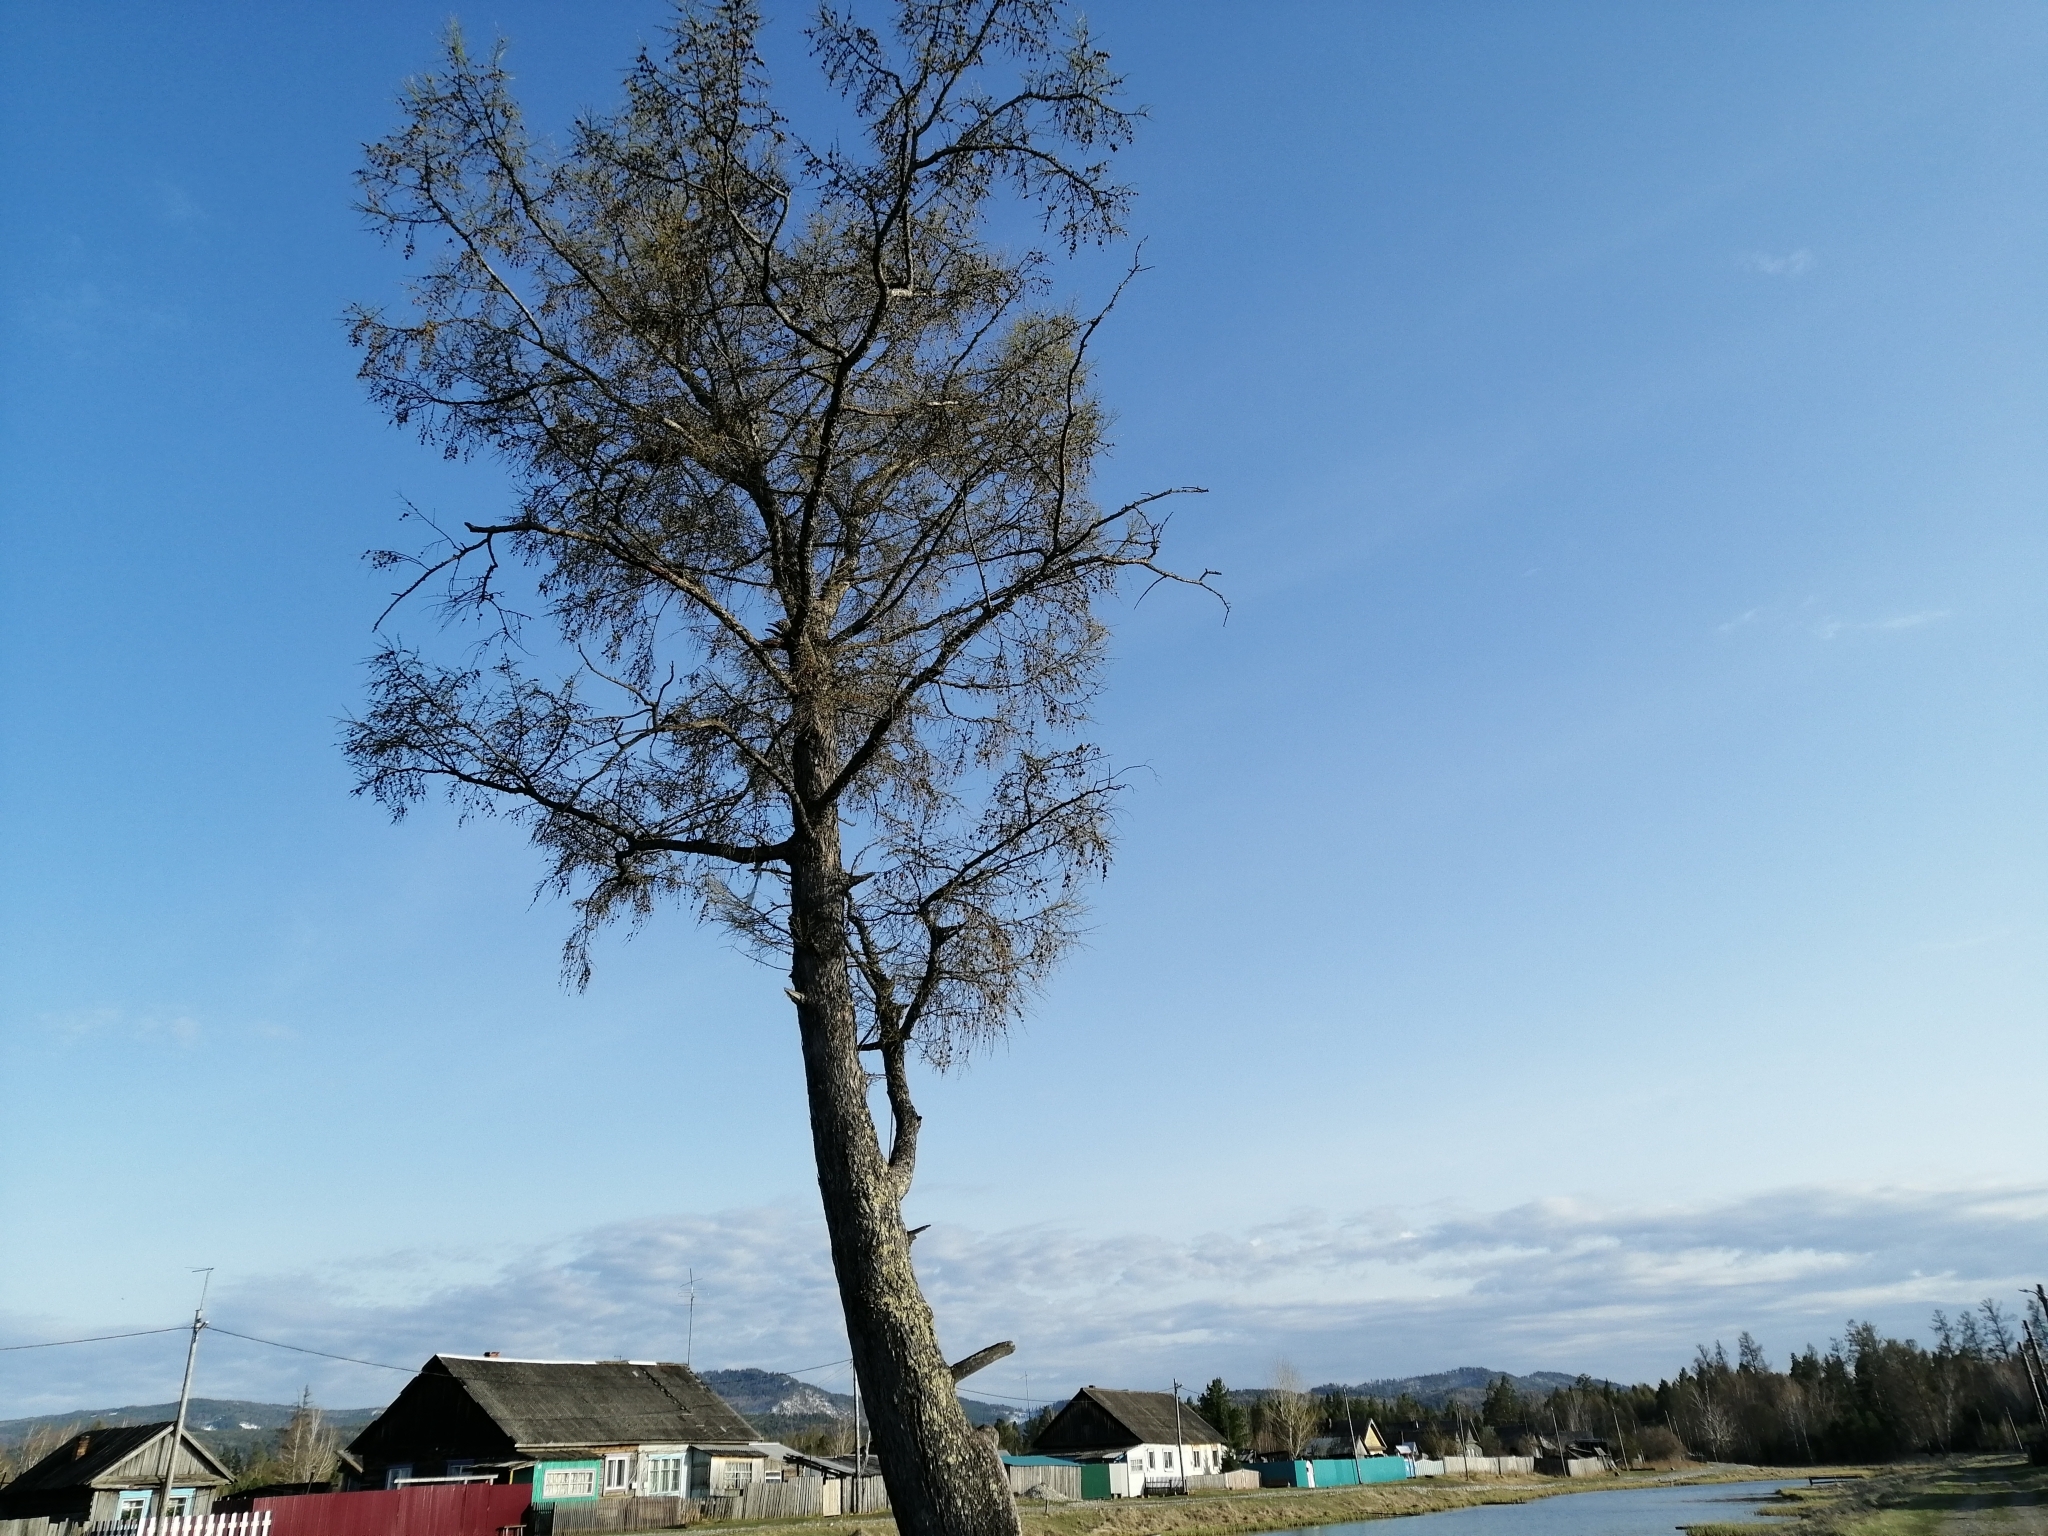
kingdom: Plantae
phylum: Tracheophyta
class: Pinopsida
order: Pinales
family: Pinaceae
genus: Larix
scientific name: Larix sibirica
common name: Siberian larch
